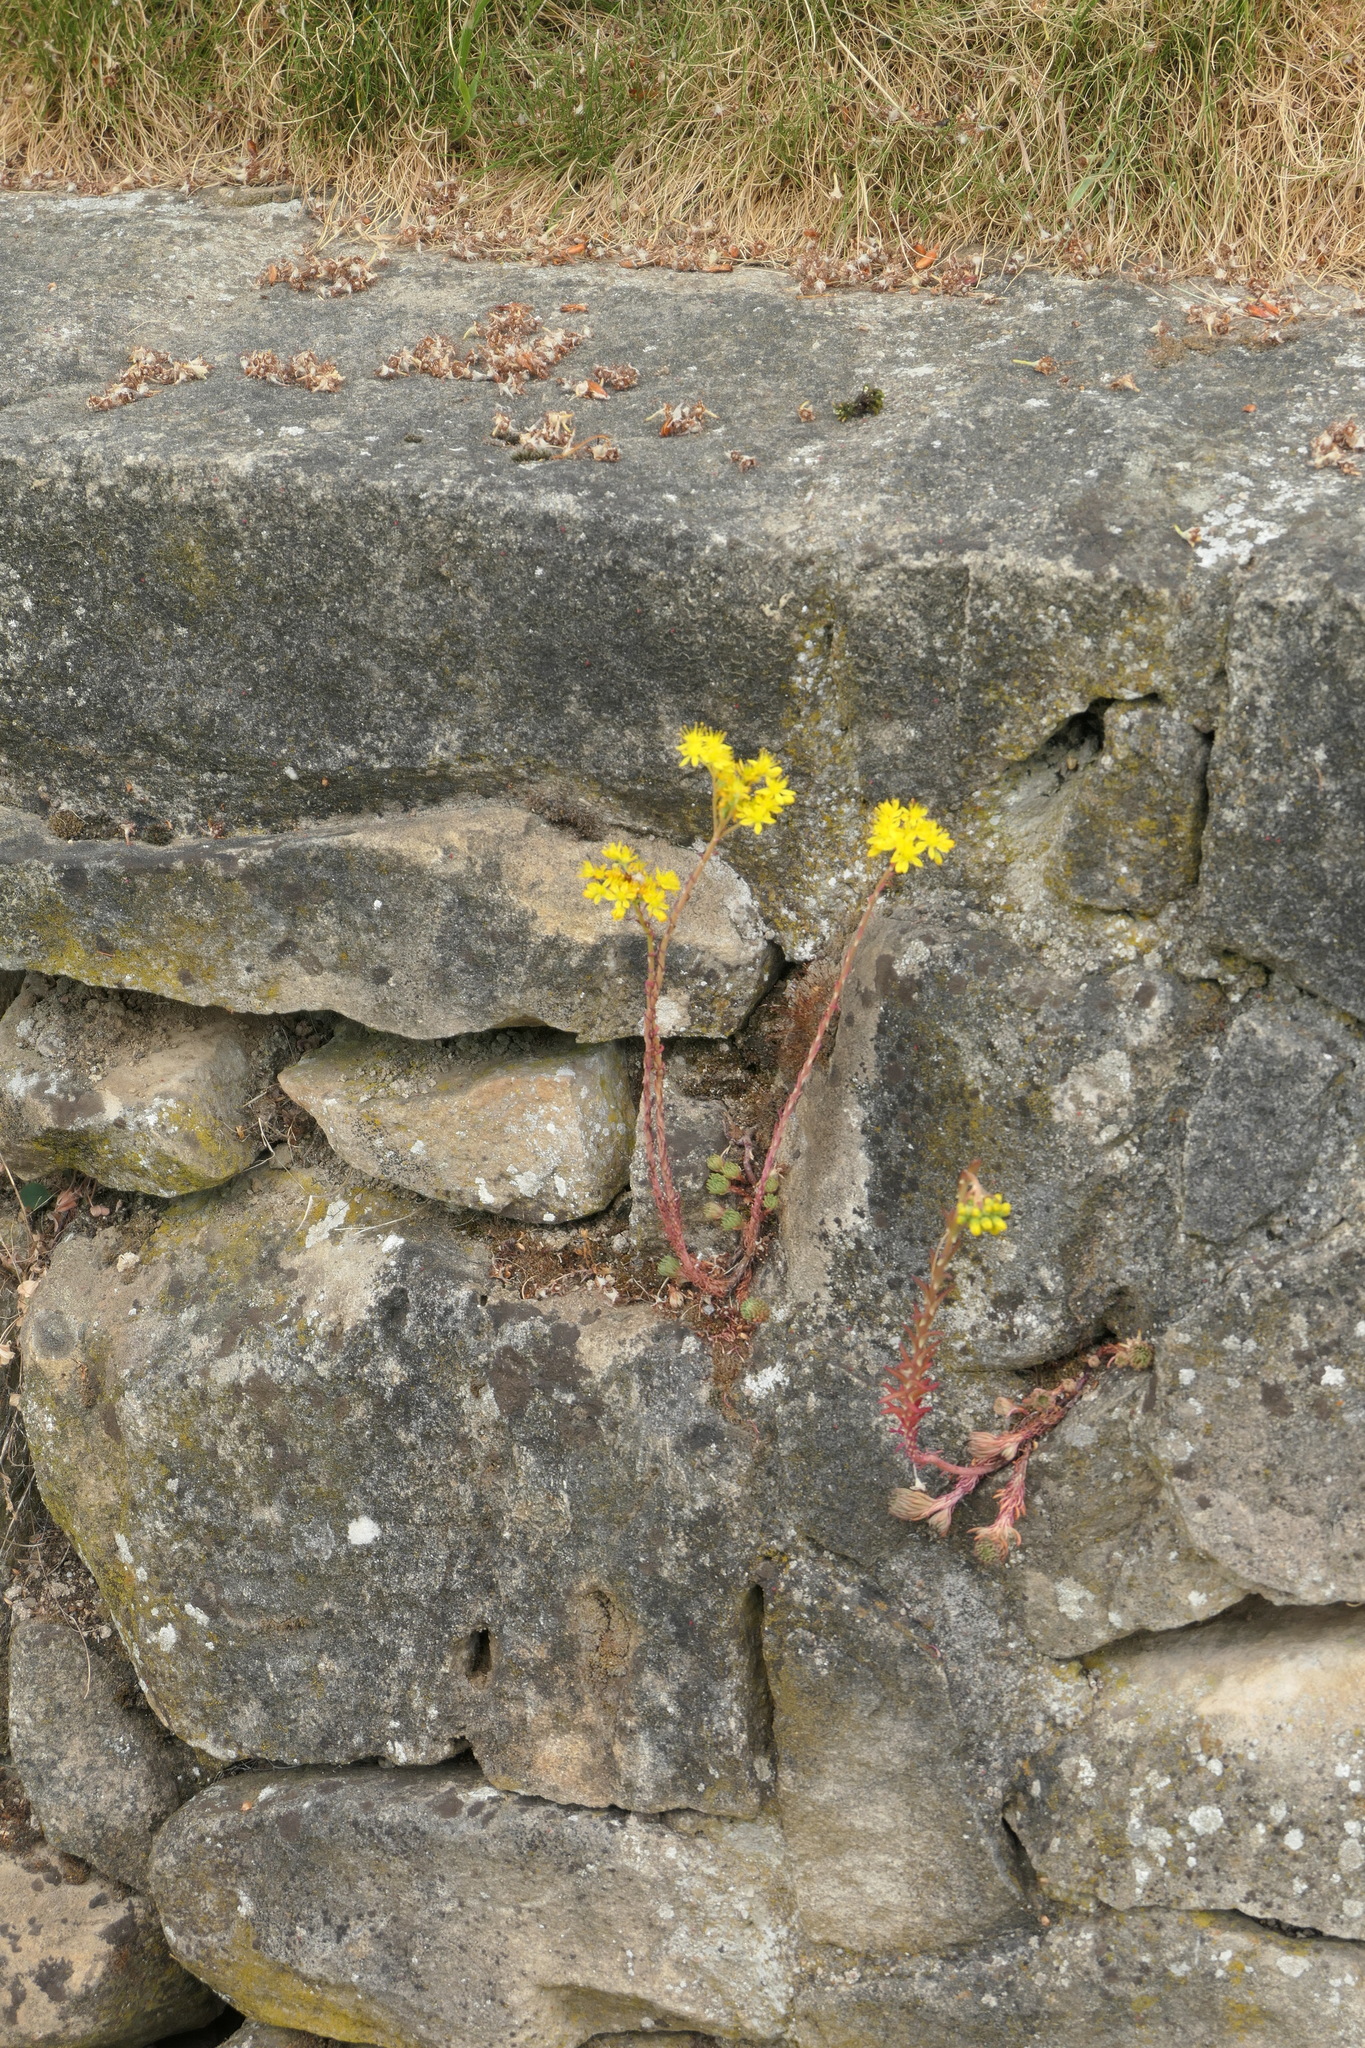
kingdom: Plantae
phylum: Tracheophyta
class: Magnoliopsida
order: Saxifragales
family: Crassulaceae
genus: Petrosedum
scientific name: Petrosedum forsterianum
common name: Forster's stonecrop
